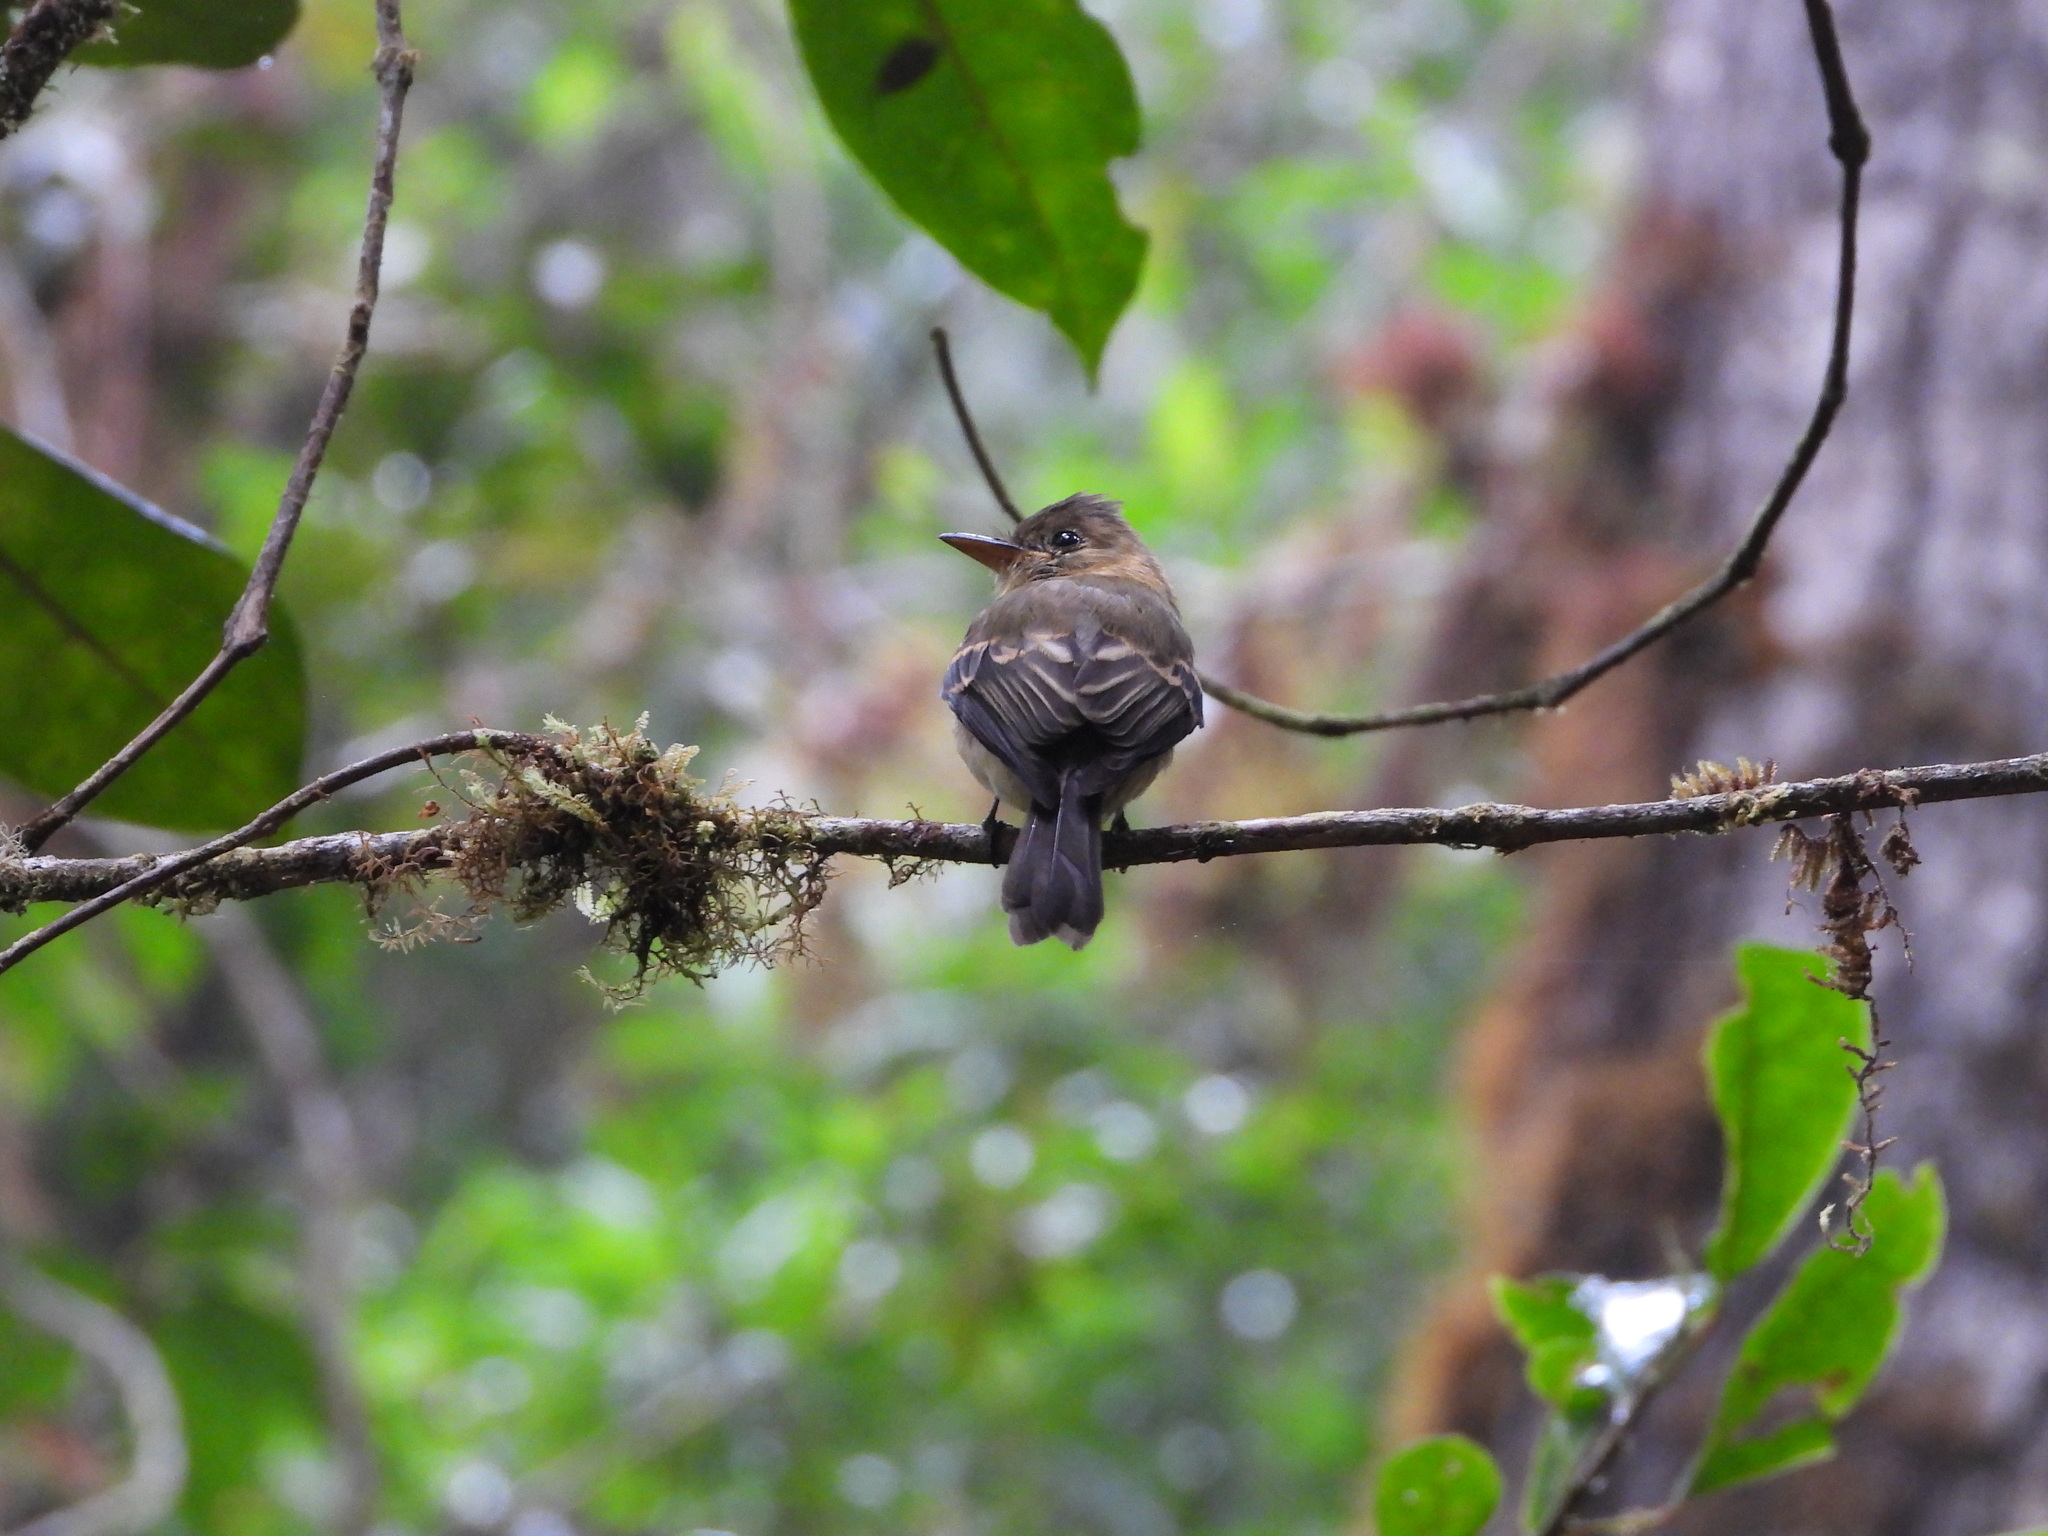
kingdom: Animalia
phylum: Chordata
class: Aves
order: Passeriformes
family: Tyrannidae
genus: Mitrephanes
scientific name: Mitrephanes phaeocercus
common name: Northern tufted flycatcher
